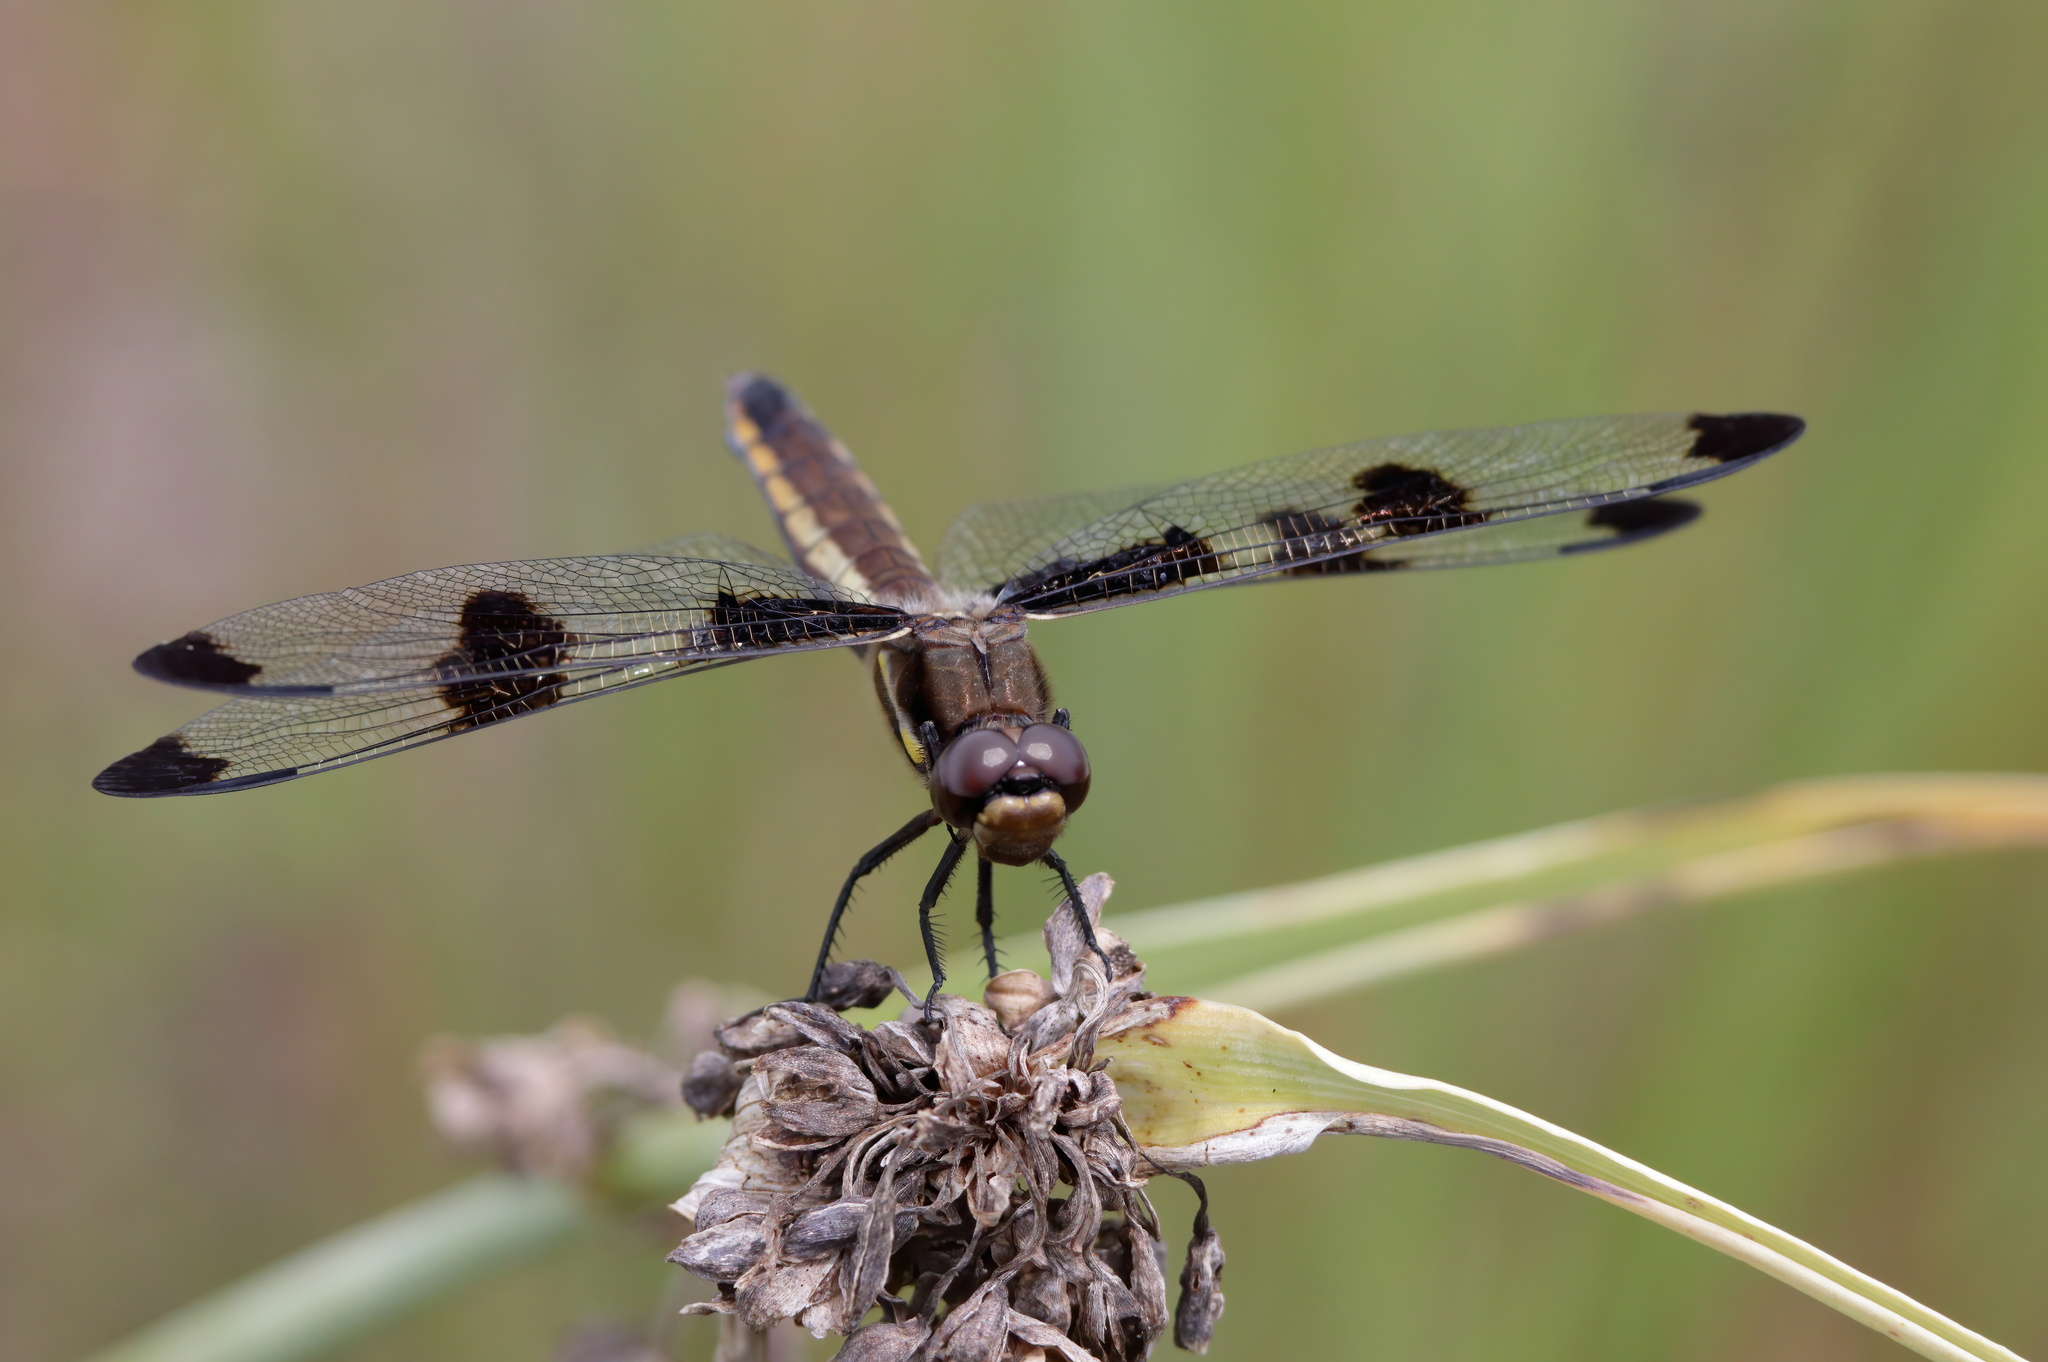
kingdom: Animalia
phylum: Arthropoda
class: Insecta
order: Odonata
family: Libellulidae
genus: Libellula
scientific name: Libellula pulchella
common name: Twelve-spotted skimmer
